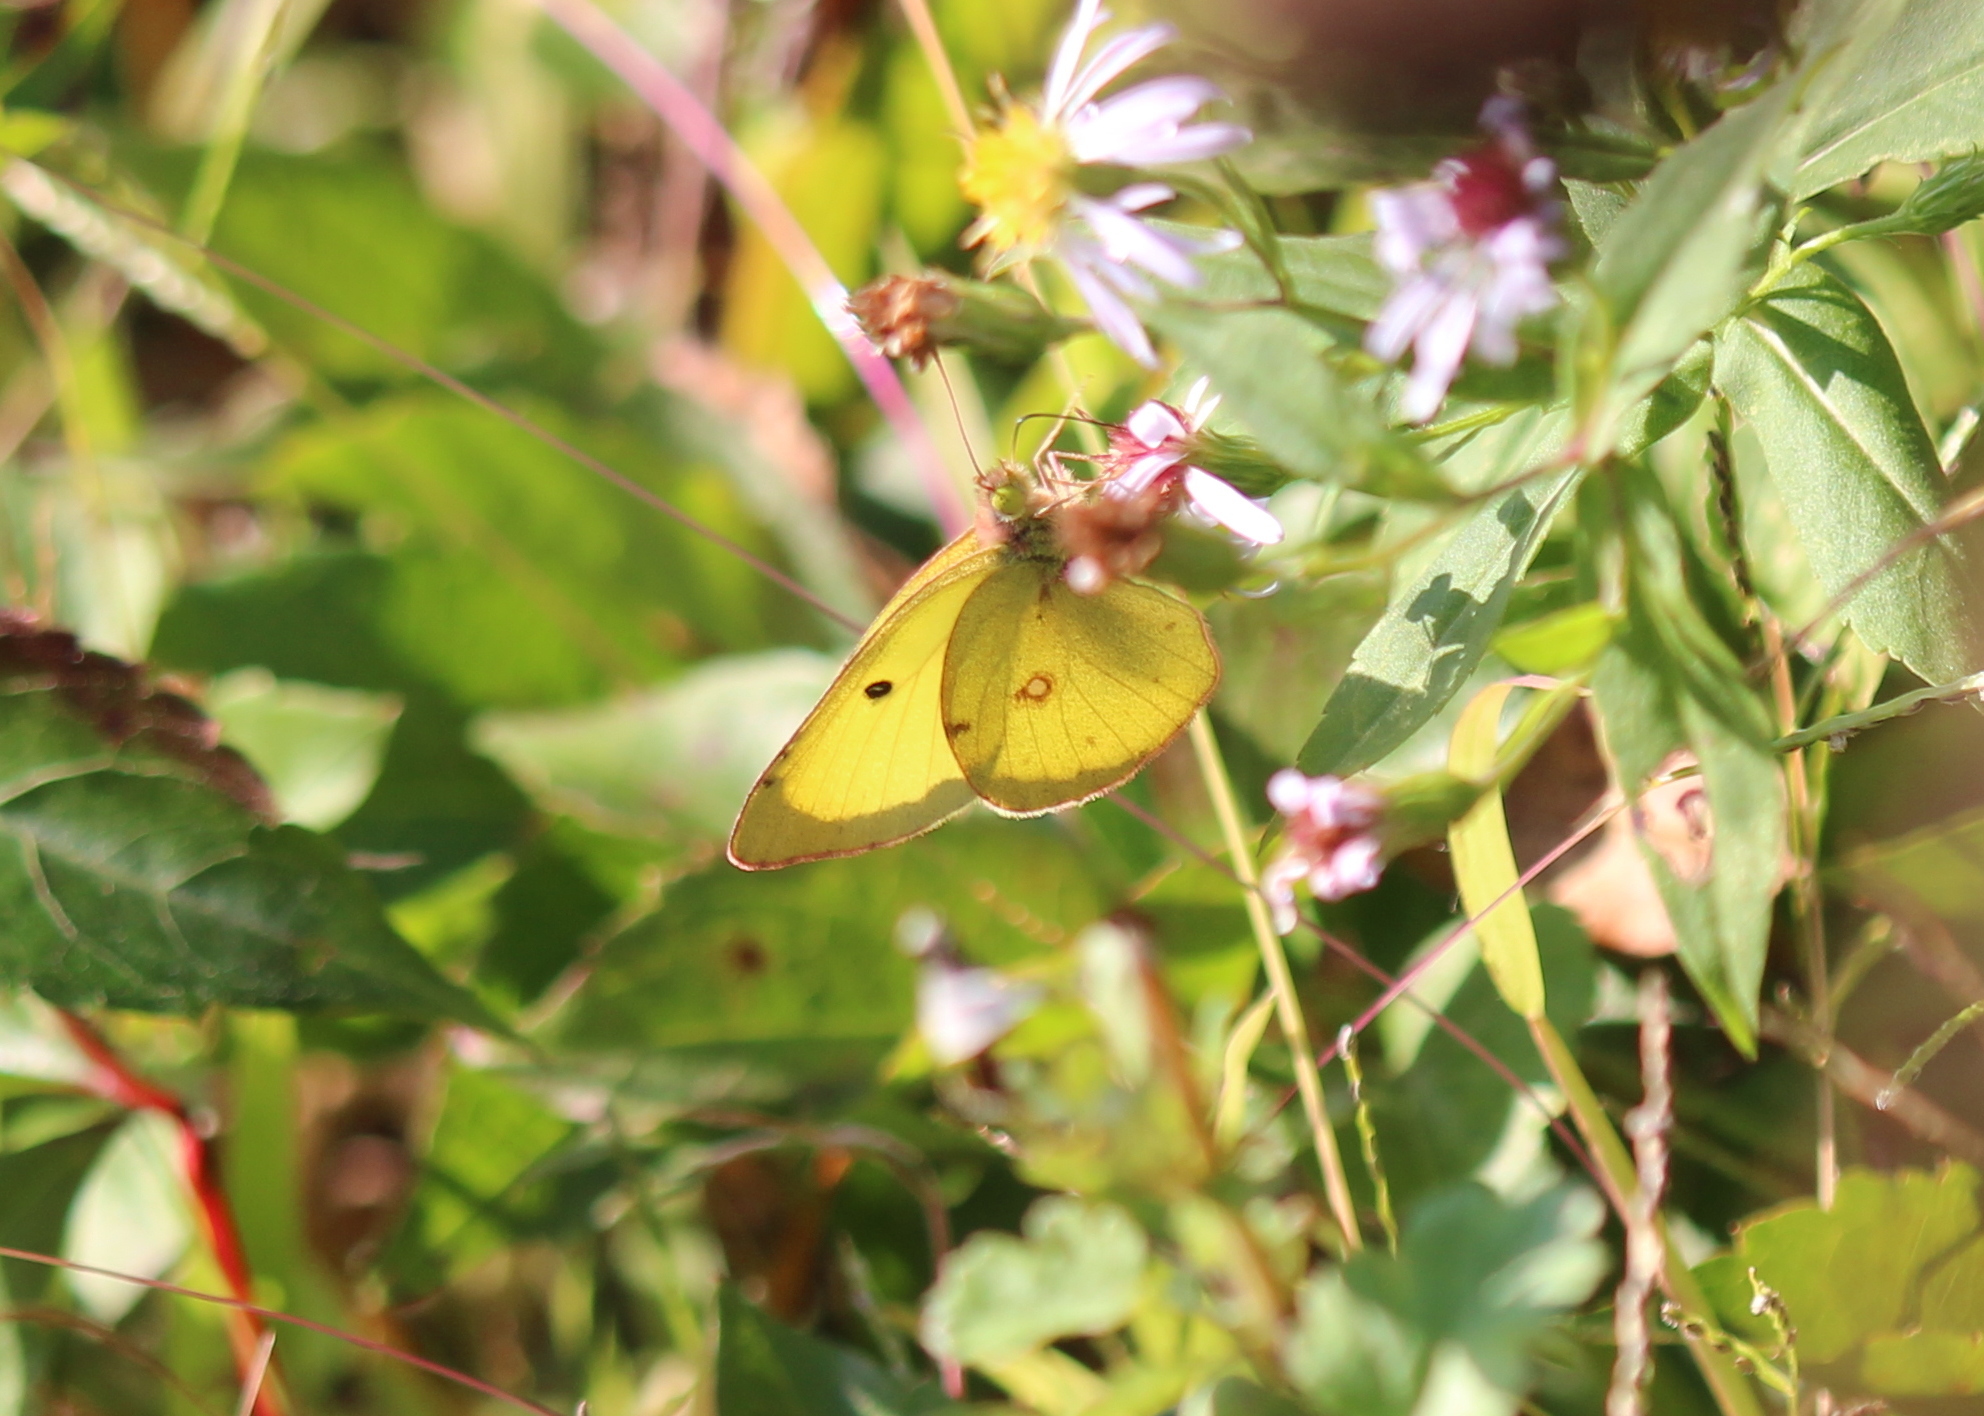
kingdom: Animalia
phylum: Arthropoda
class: Insecta
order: Lepidoptera
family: Pieridae
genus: Colias
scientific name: Colias philodice
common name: Clouded sulphur
